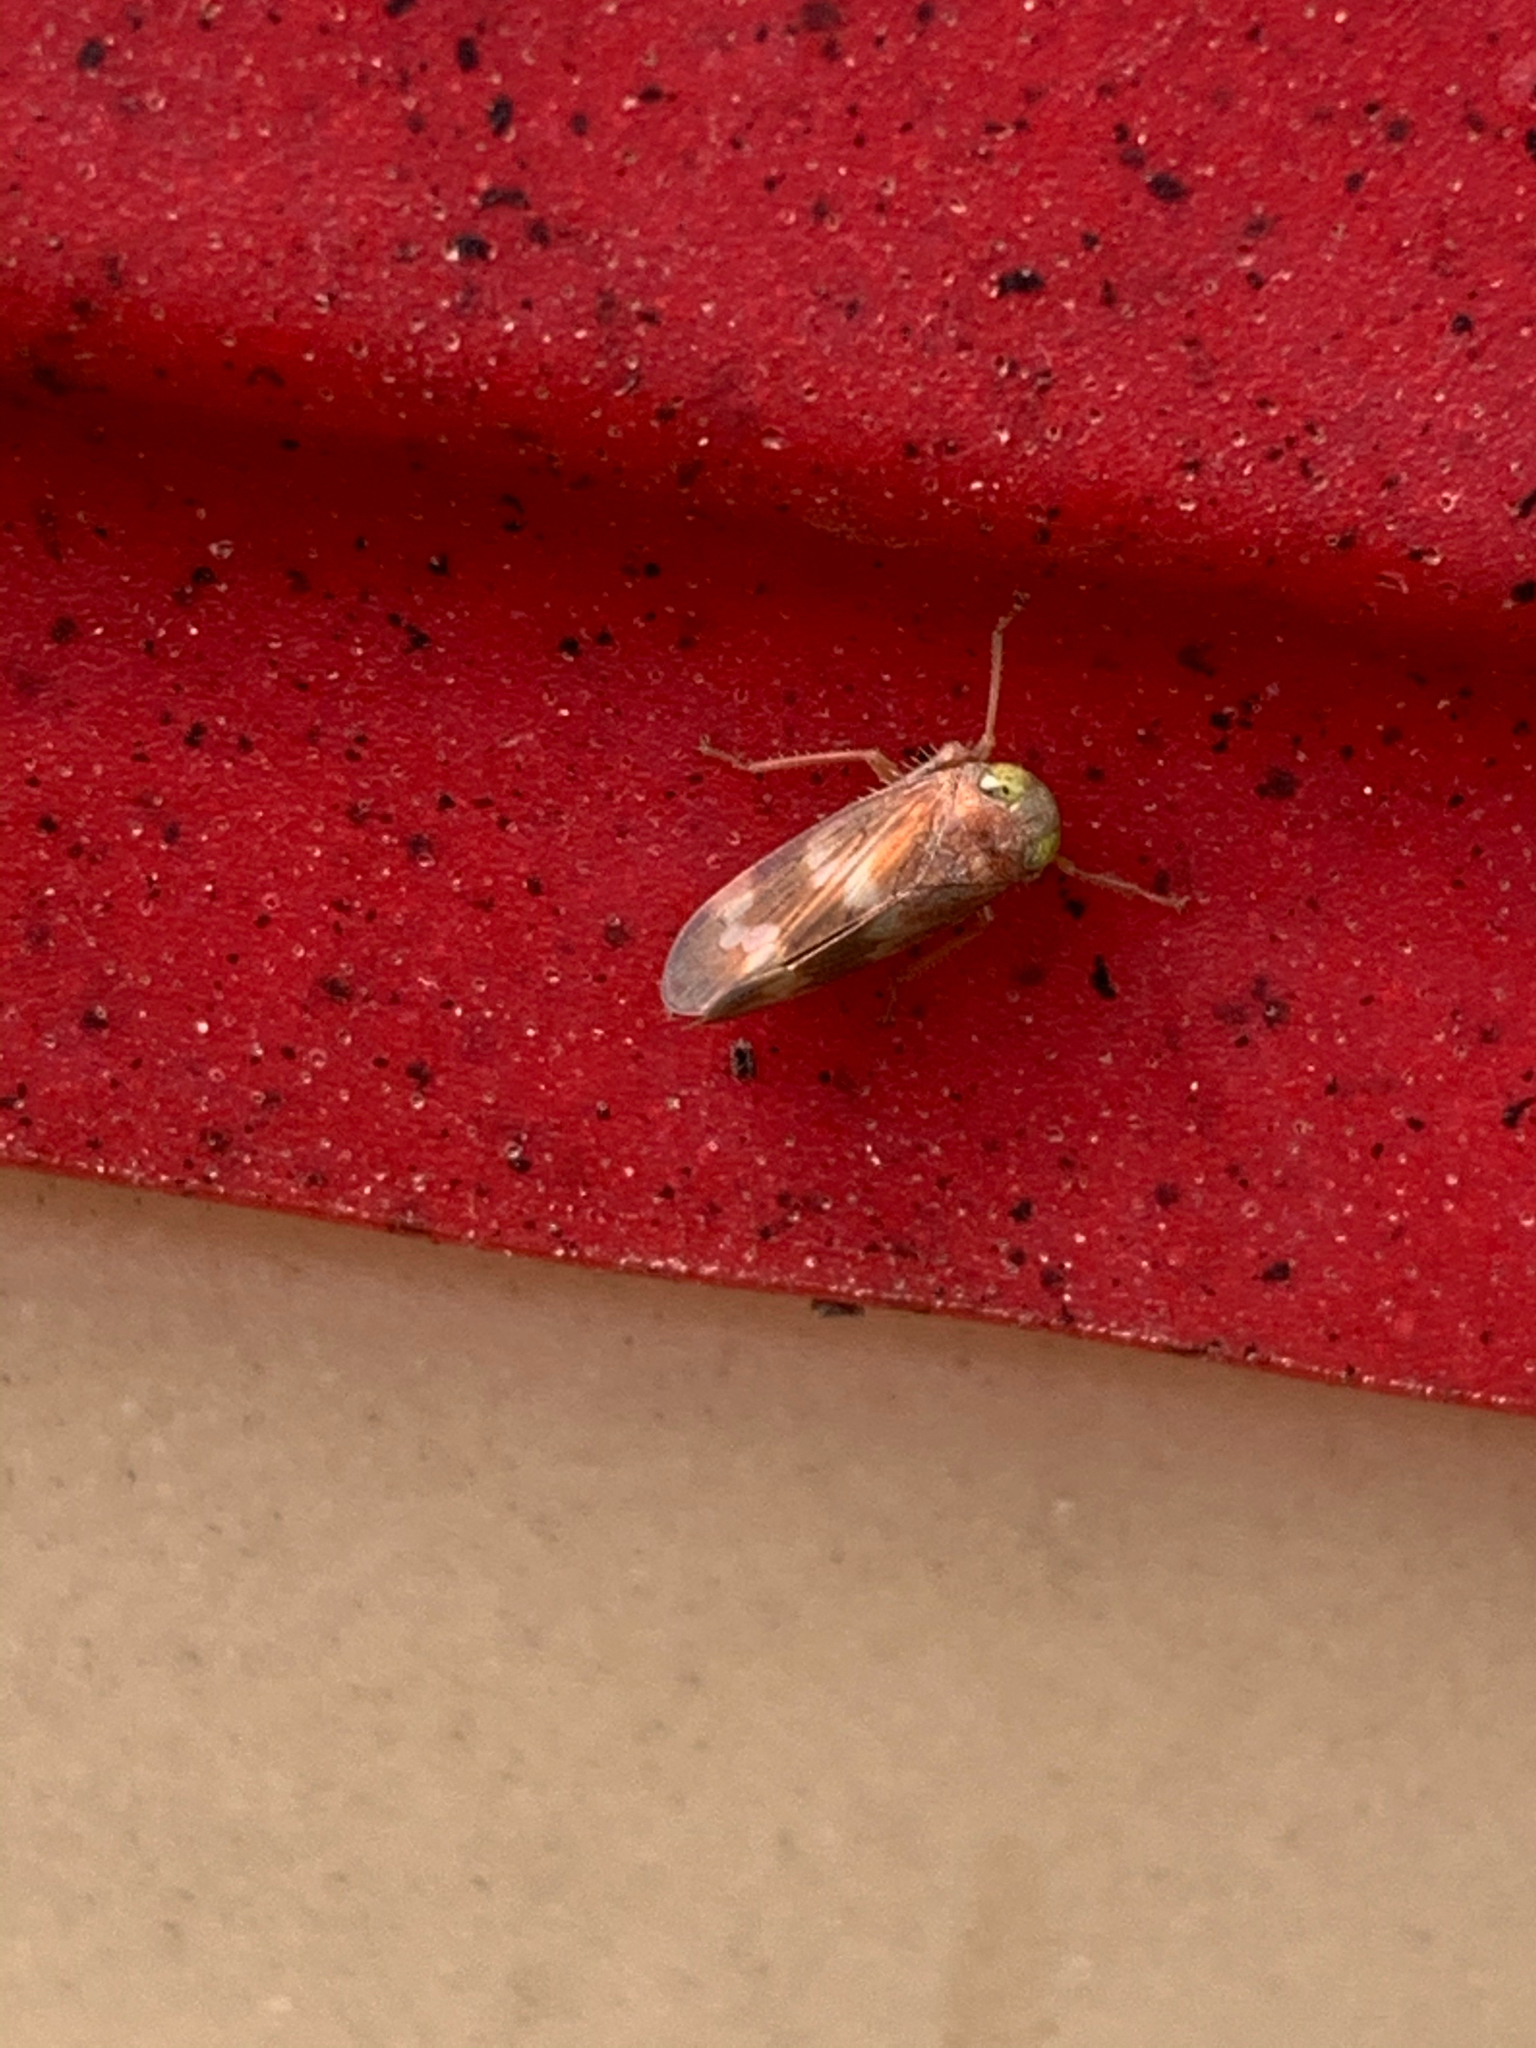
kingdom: Animalia
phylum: Arthropoda
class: Insecta
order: Hemiptera
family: Cicadellidae
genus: Jikradia
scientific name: Jikradia olitoria
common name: Coppery leafhopper
